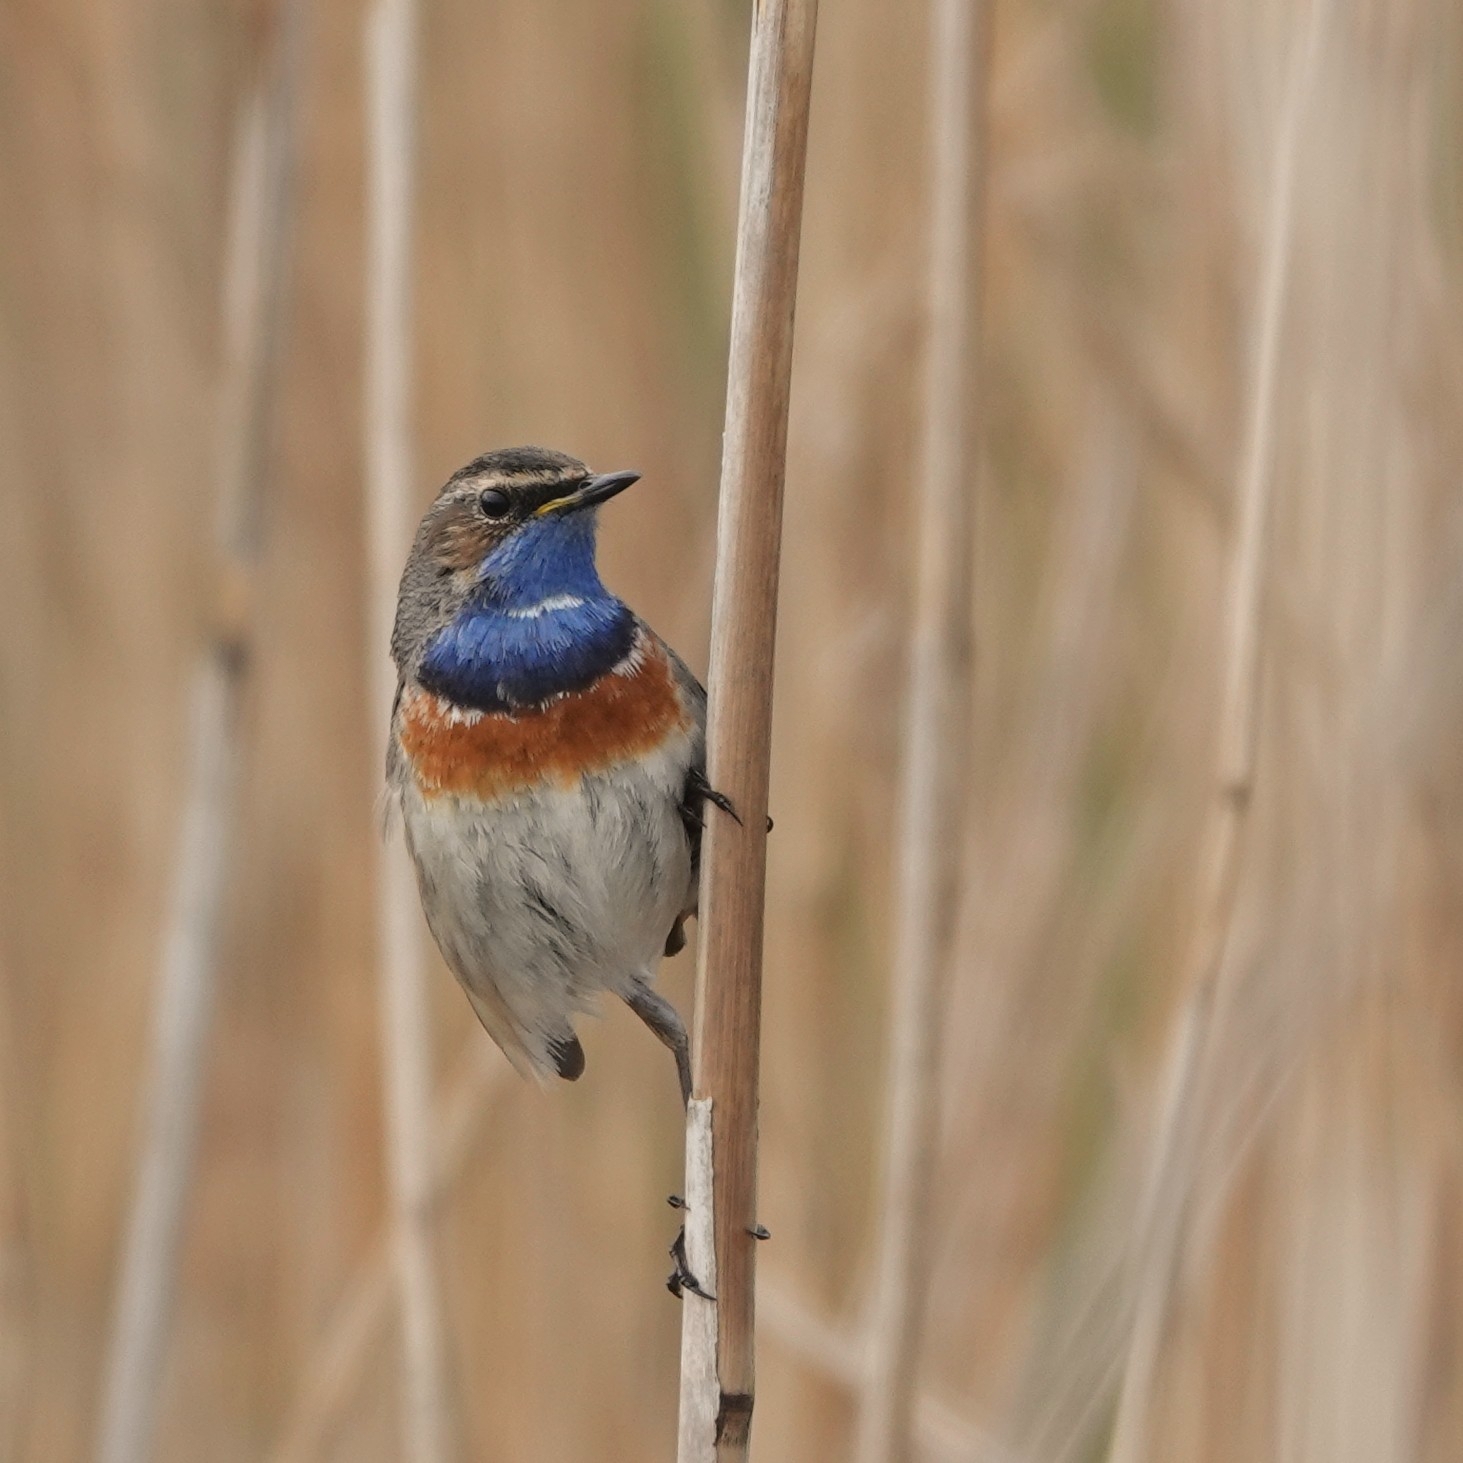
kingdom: Animalia
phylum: Chordata
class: Aves
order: Passeriformes
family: Muscicapidae
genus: Luscinia
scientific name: Luscinia svecica
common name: Bluethroat
